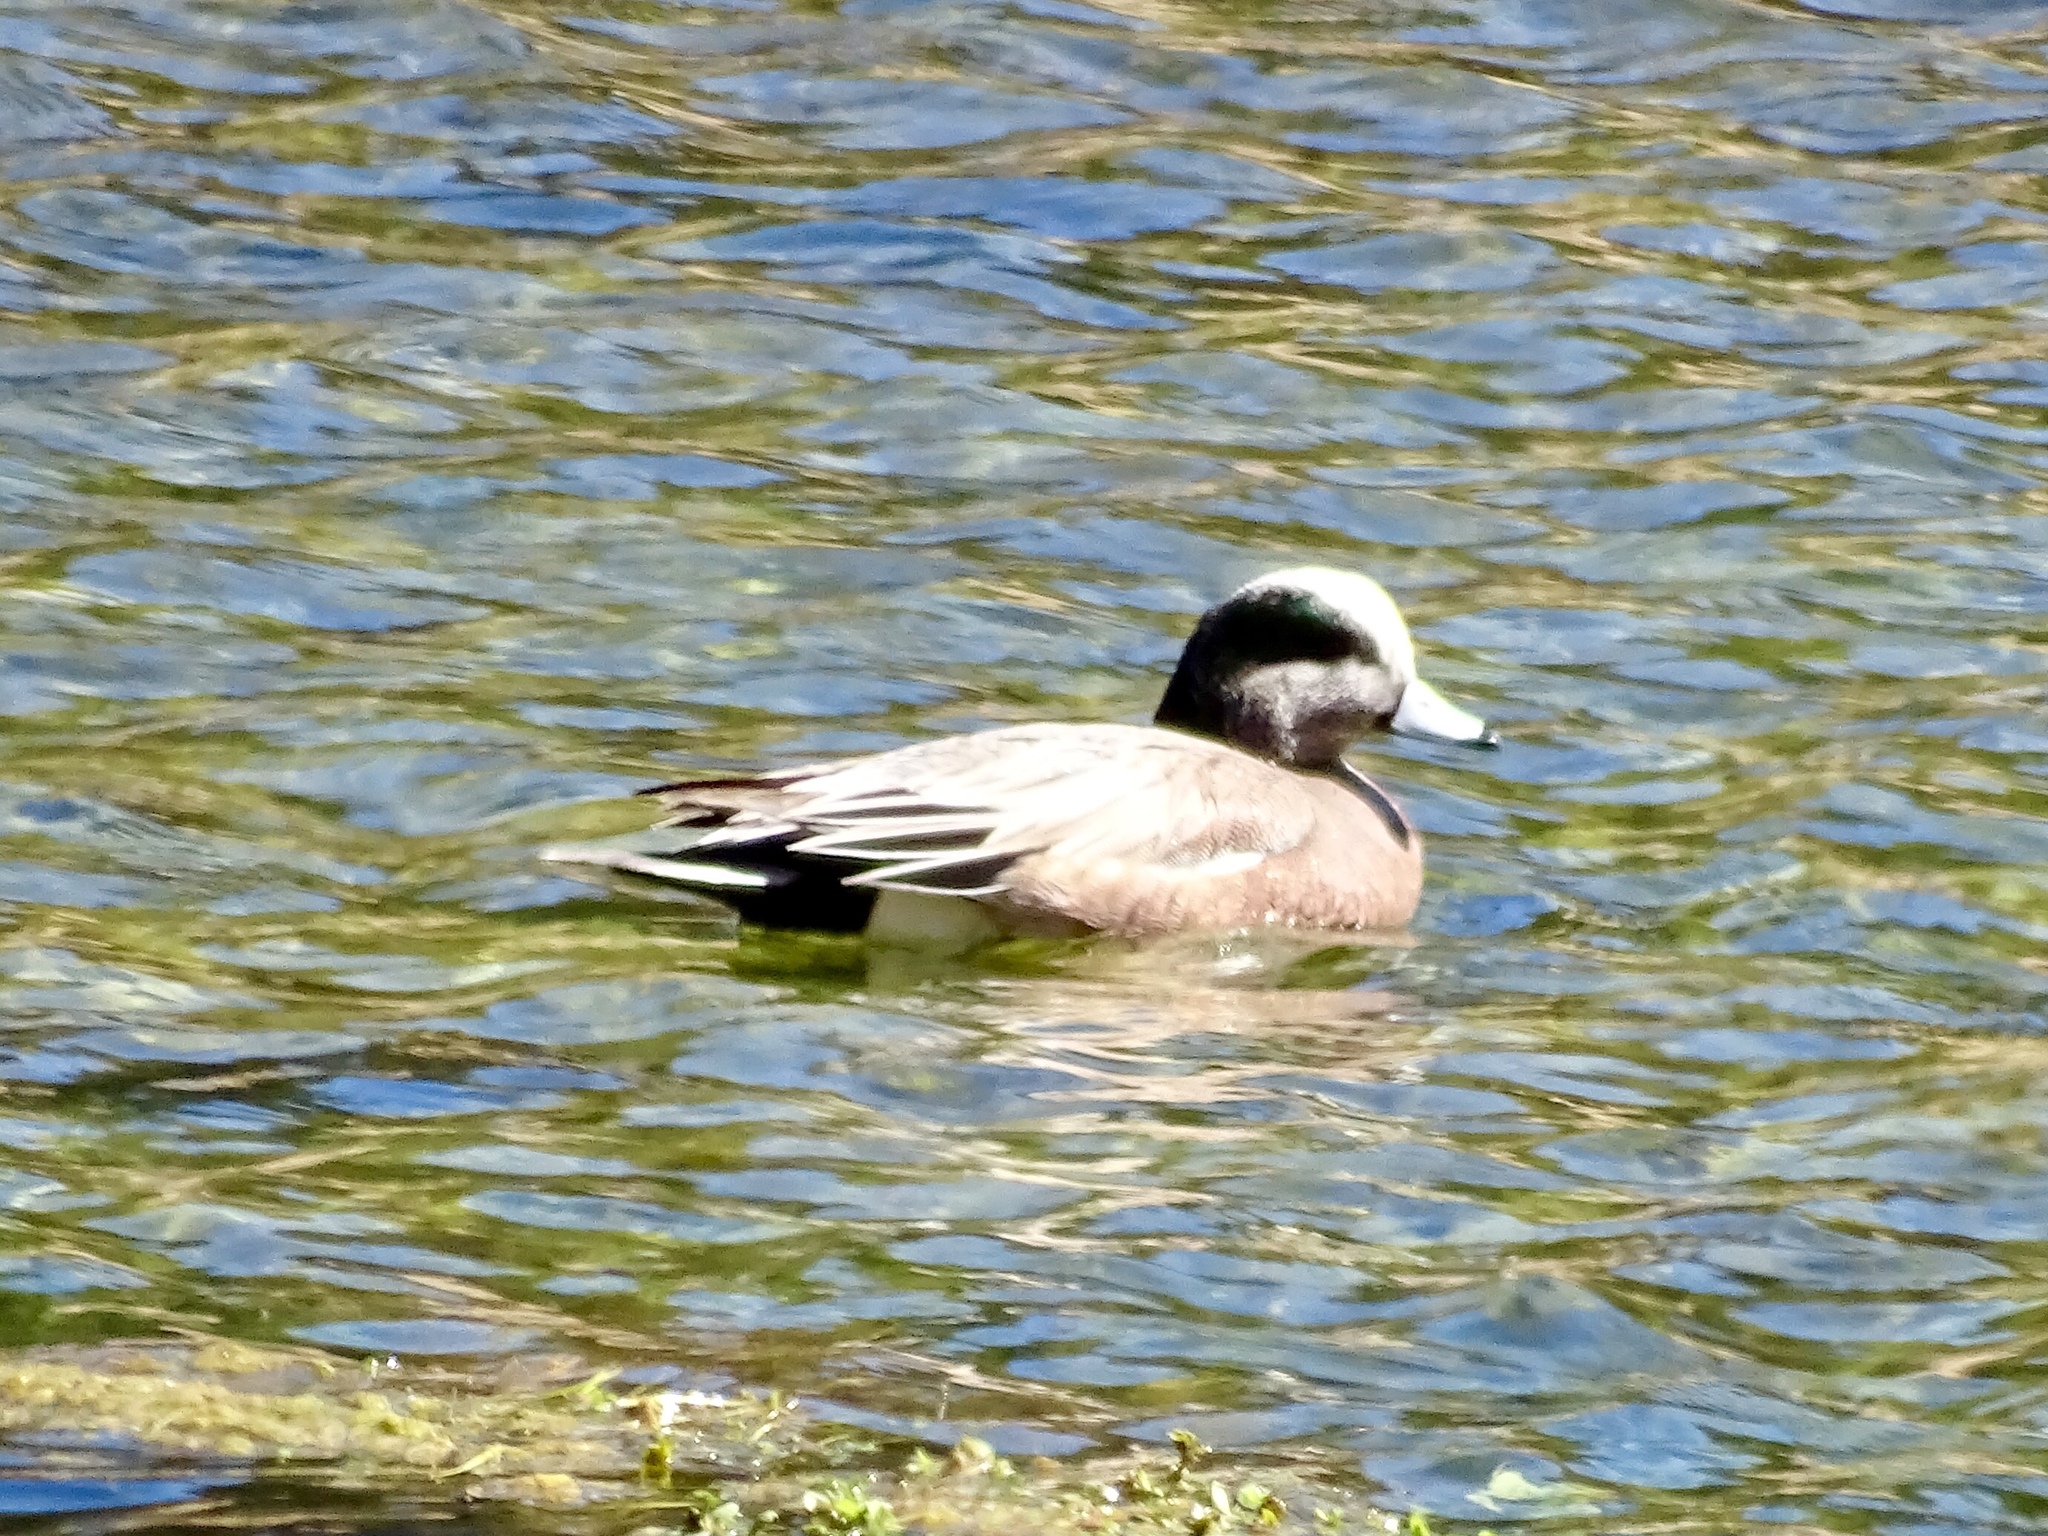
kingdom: Animalia
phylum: Chordata
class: Aves
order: Anseriformes
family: Anatidae
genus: Mareca
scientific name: Mareca americana
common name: American wigeon
